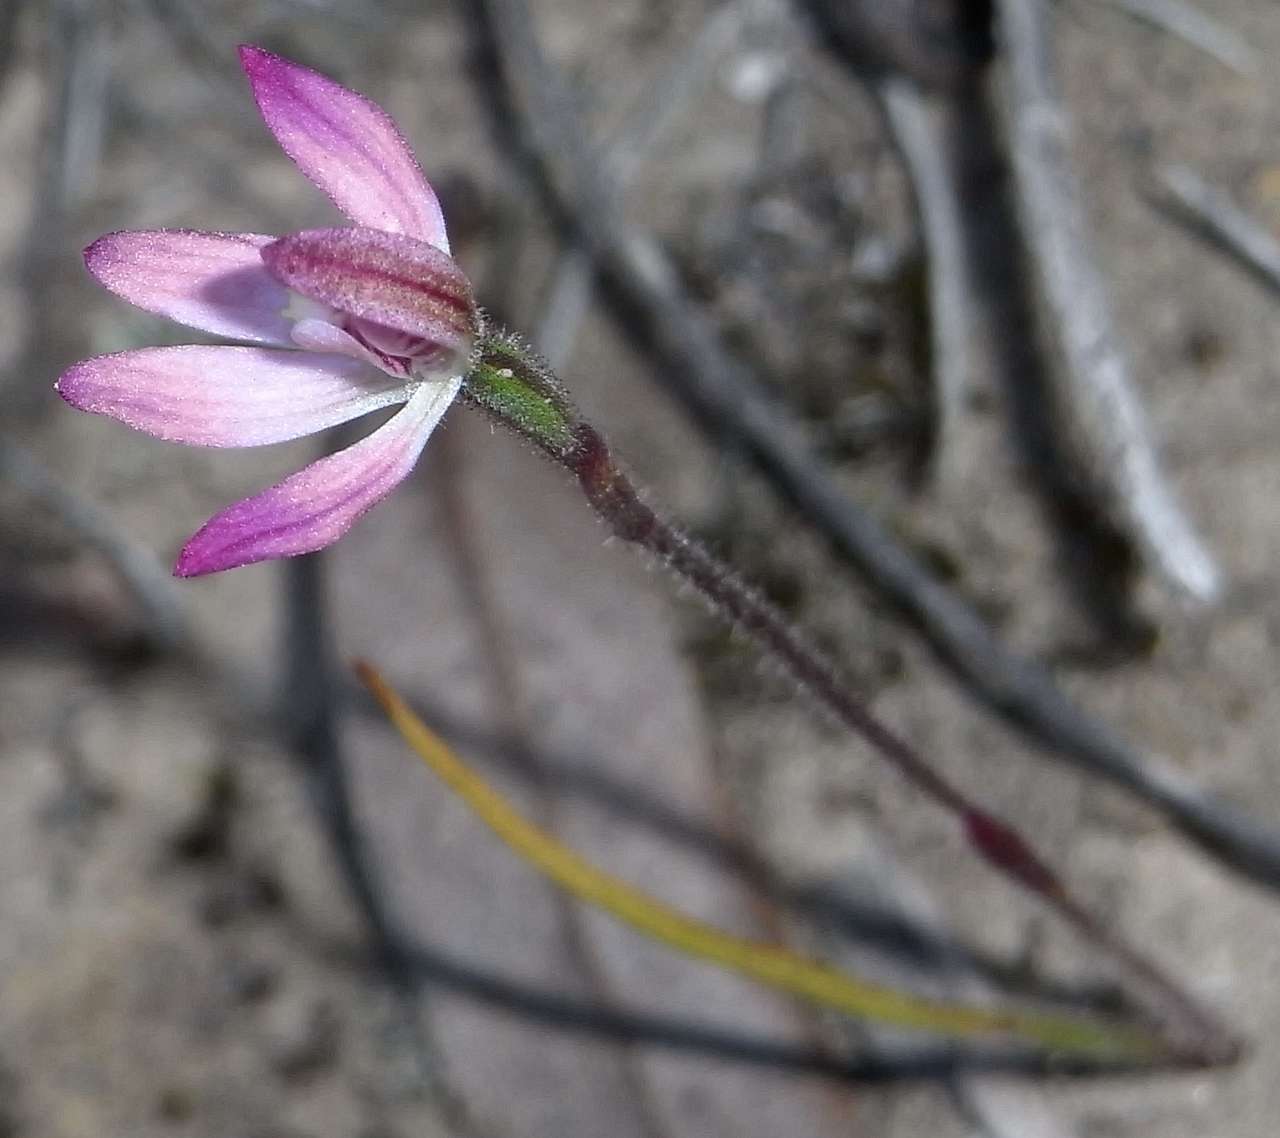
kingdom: Plantae
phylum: Tracheophyta
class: Liliopsida
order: Asparagales
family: Orchidaceae
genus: Caladenia
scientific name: Caladenia pusilla
